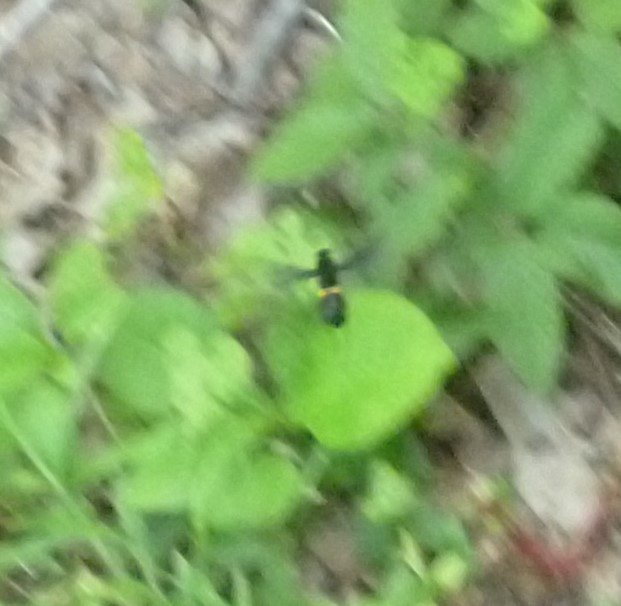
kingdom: Animalia
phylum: Arthropoda
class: Insecta
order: Diptera
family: Mydidae
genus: Mydas
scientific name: Mydas clavatus
